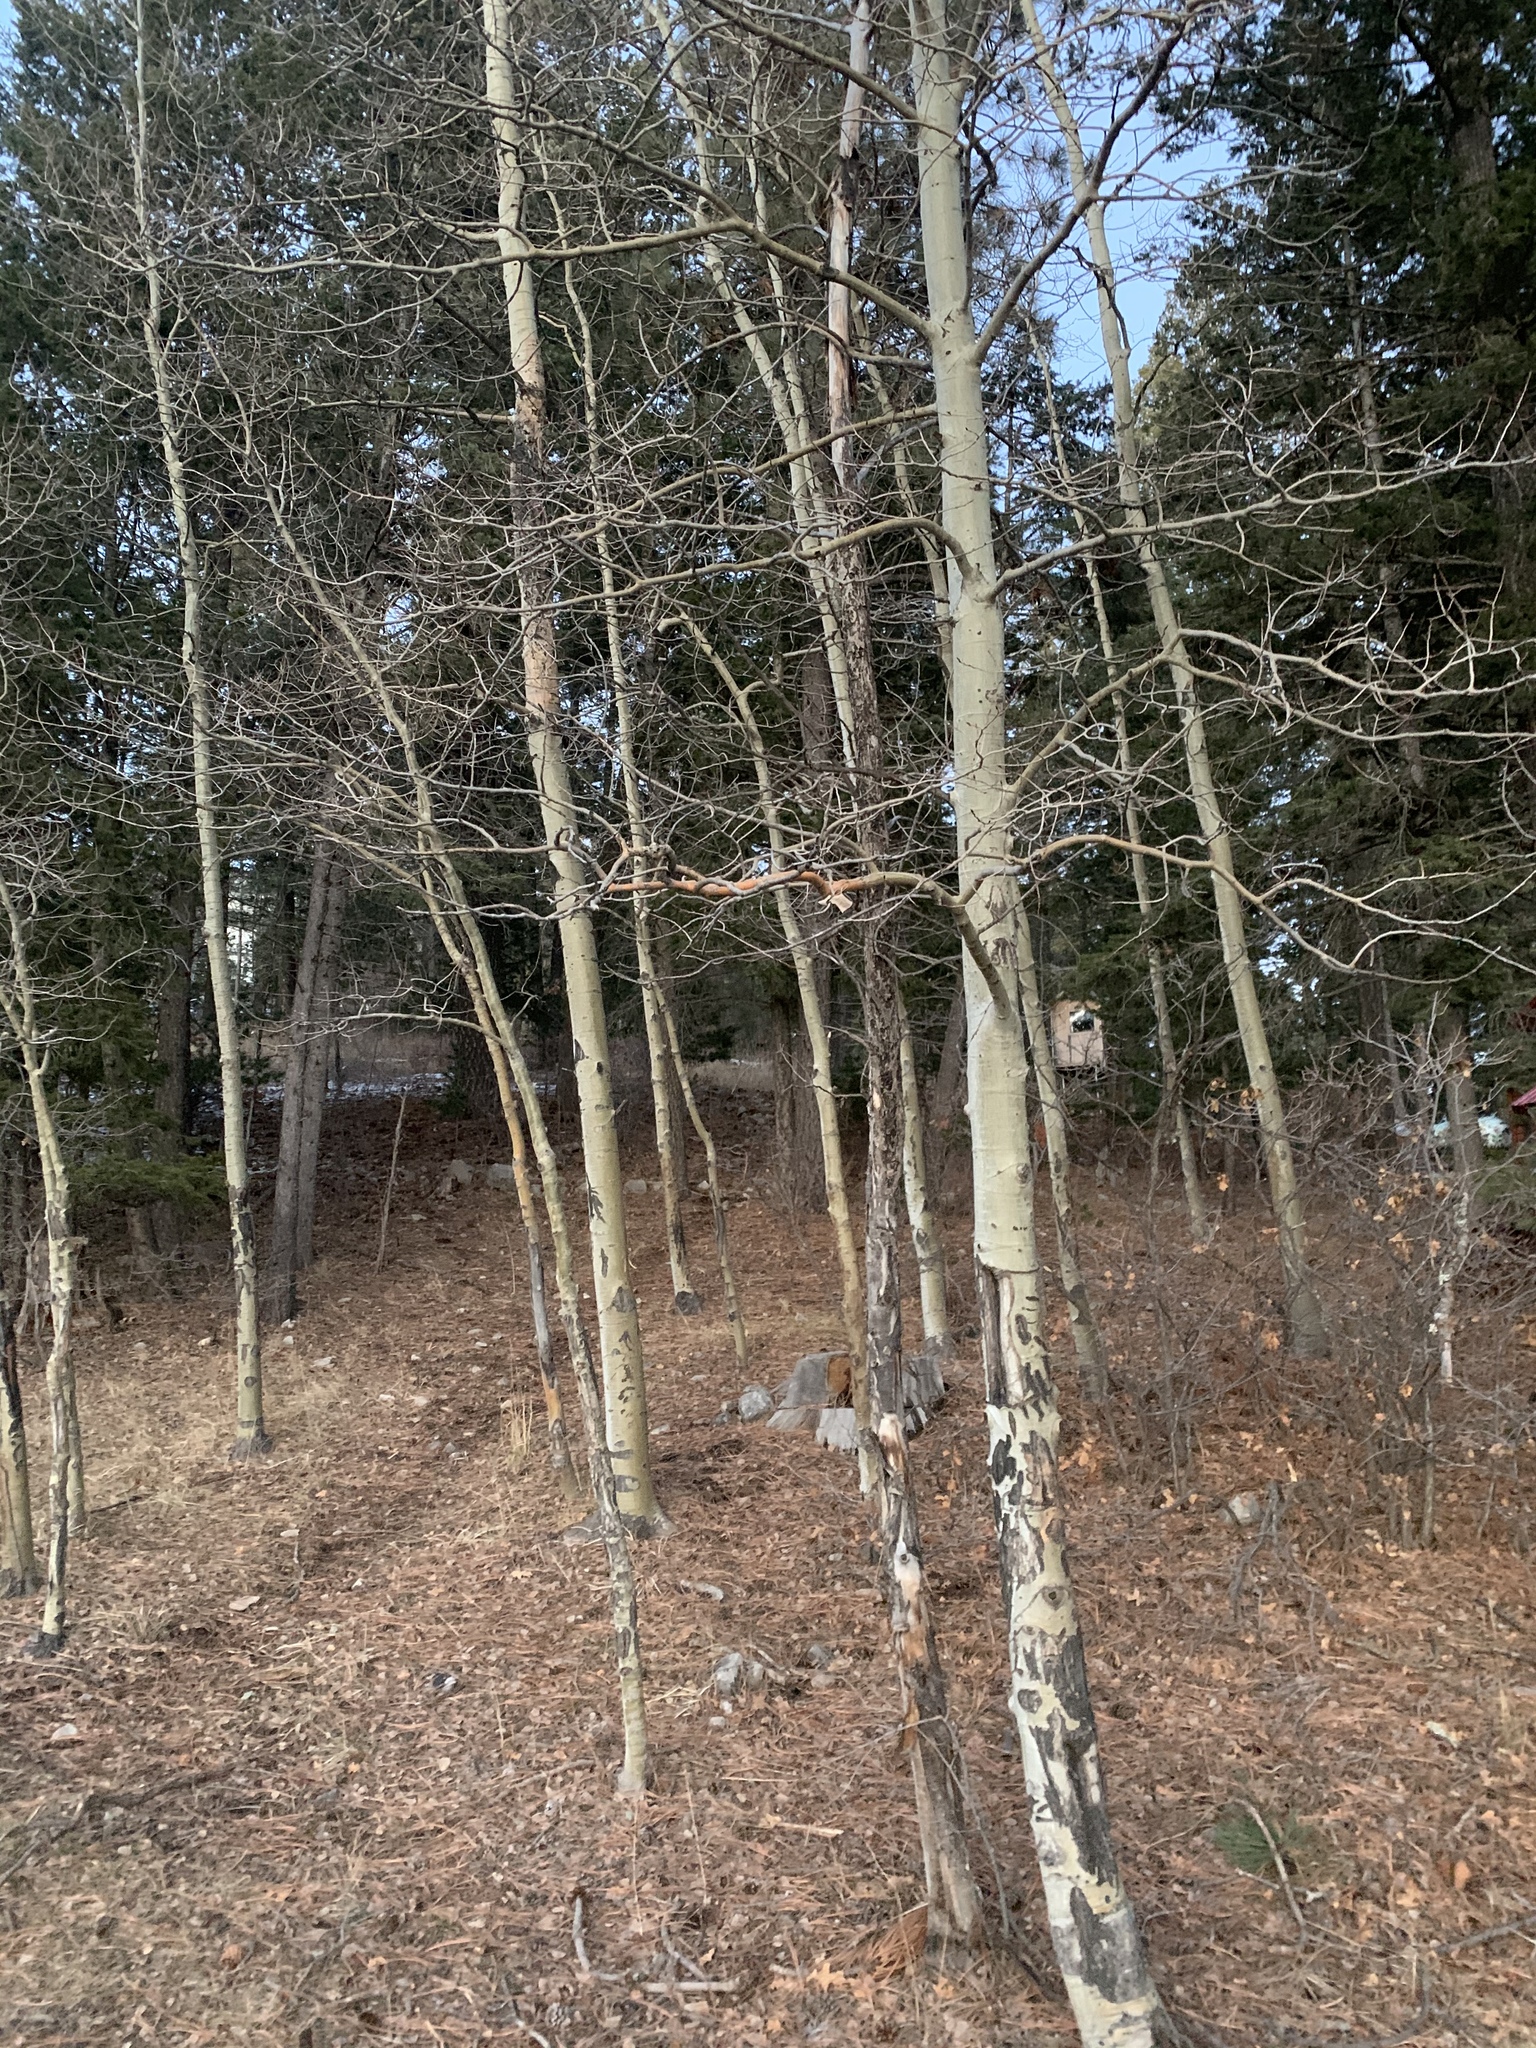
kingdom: Plantae
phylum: Tracheophyta
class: Magnoliopsida
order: Malpighiales
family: Salicaceae
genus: Populus
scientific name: Populus tremuloides
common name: Quaking aspen
